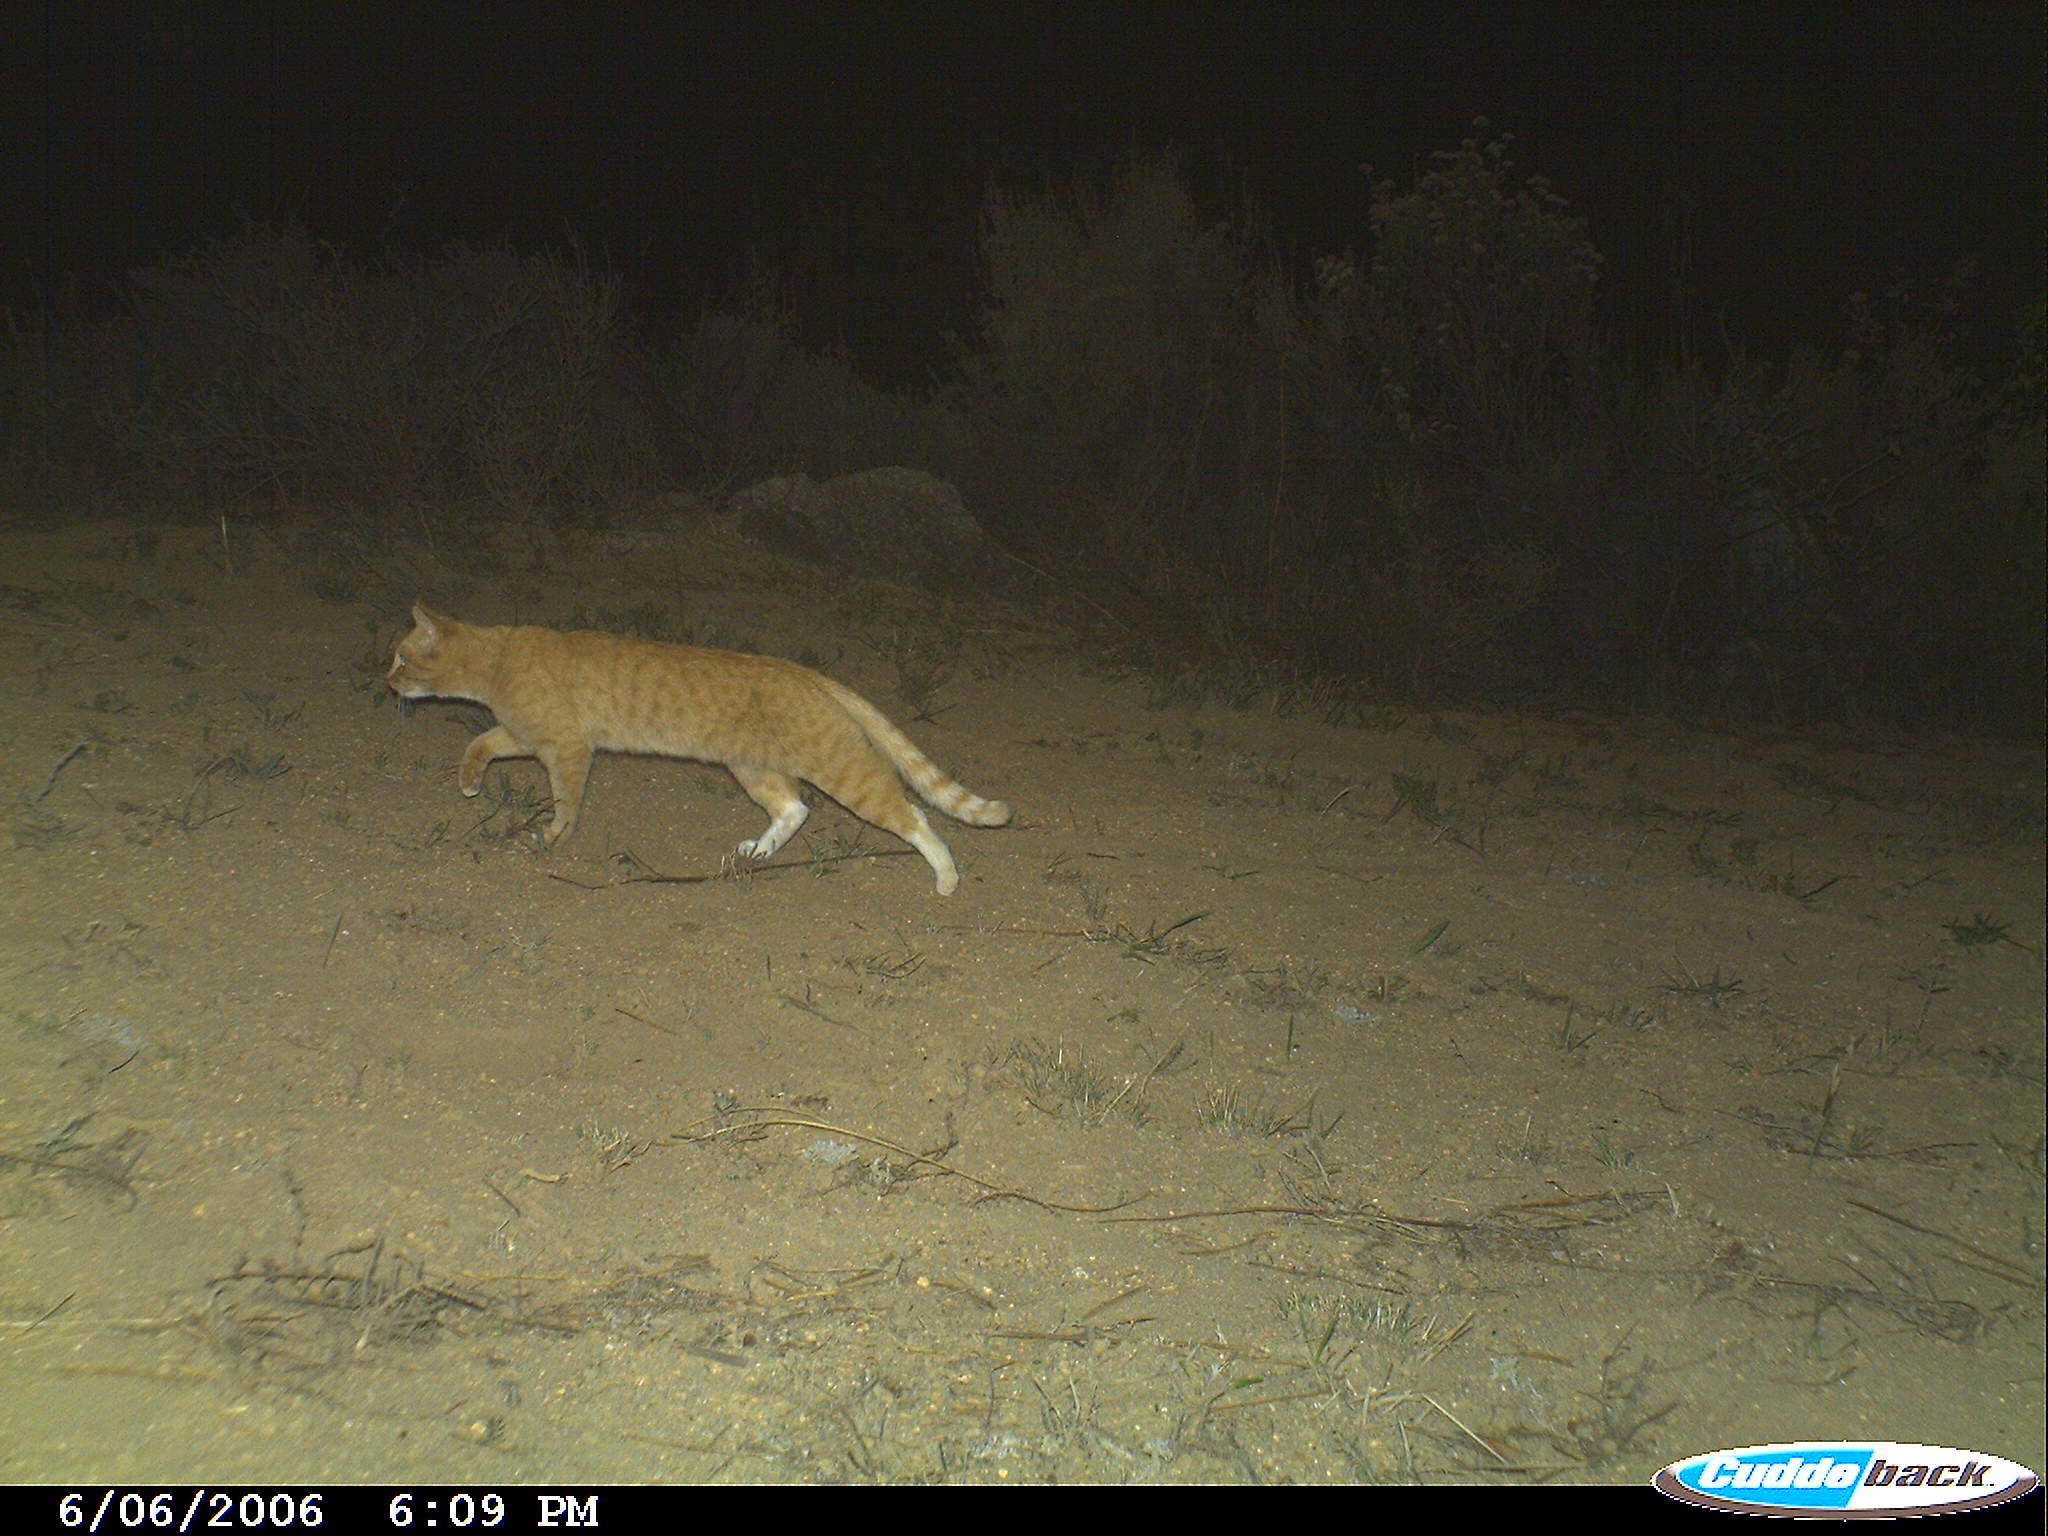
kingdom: Animalia
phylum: Chordata
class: Mammalia
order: Carnivora
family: Felidae
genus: Felis
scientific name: Felis catus
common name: Domestic cat
